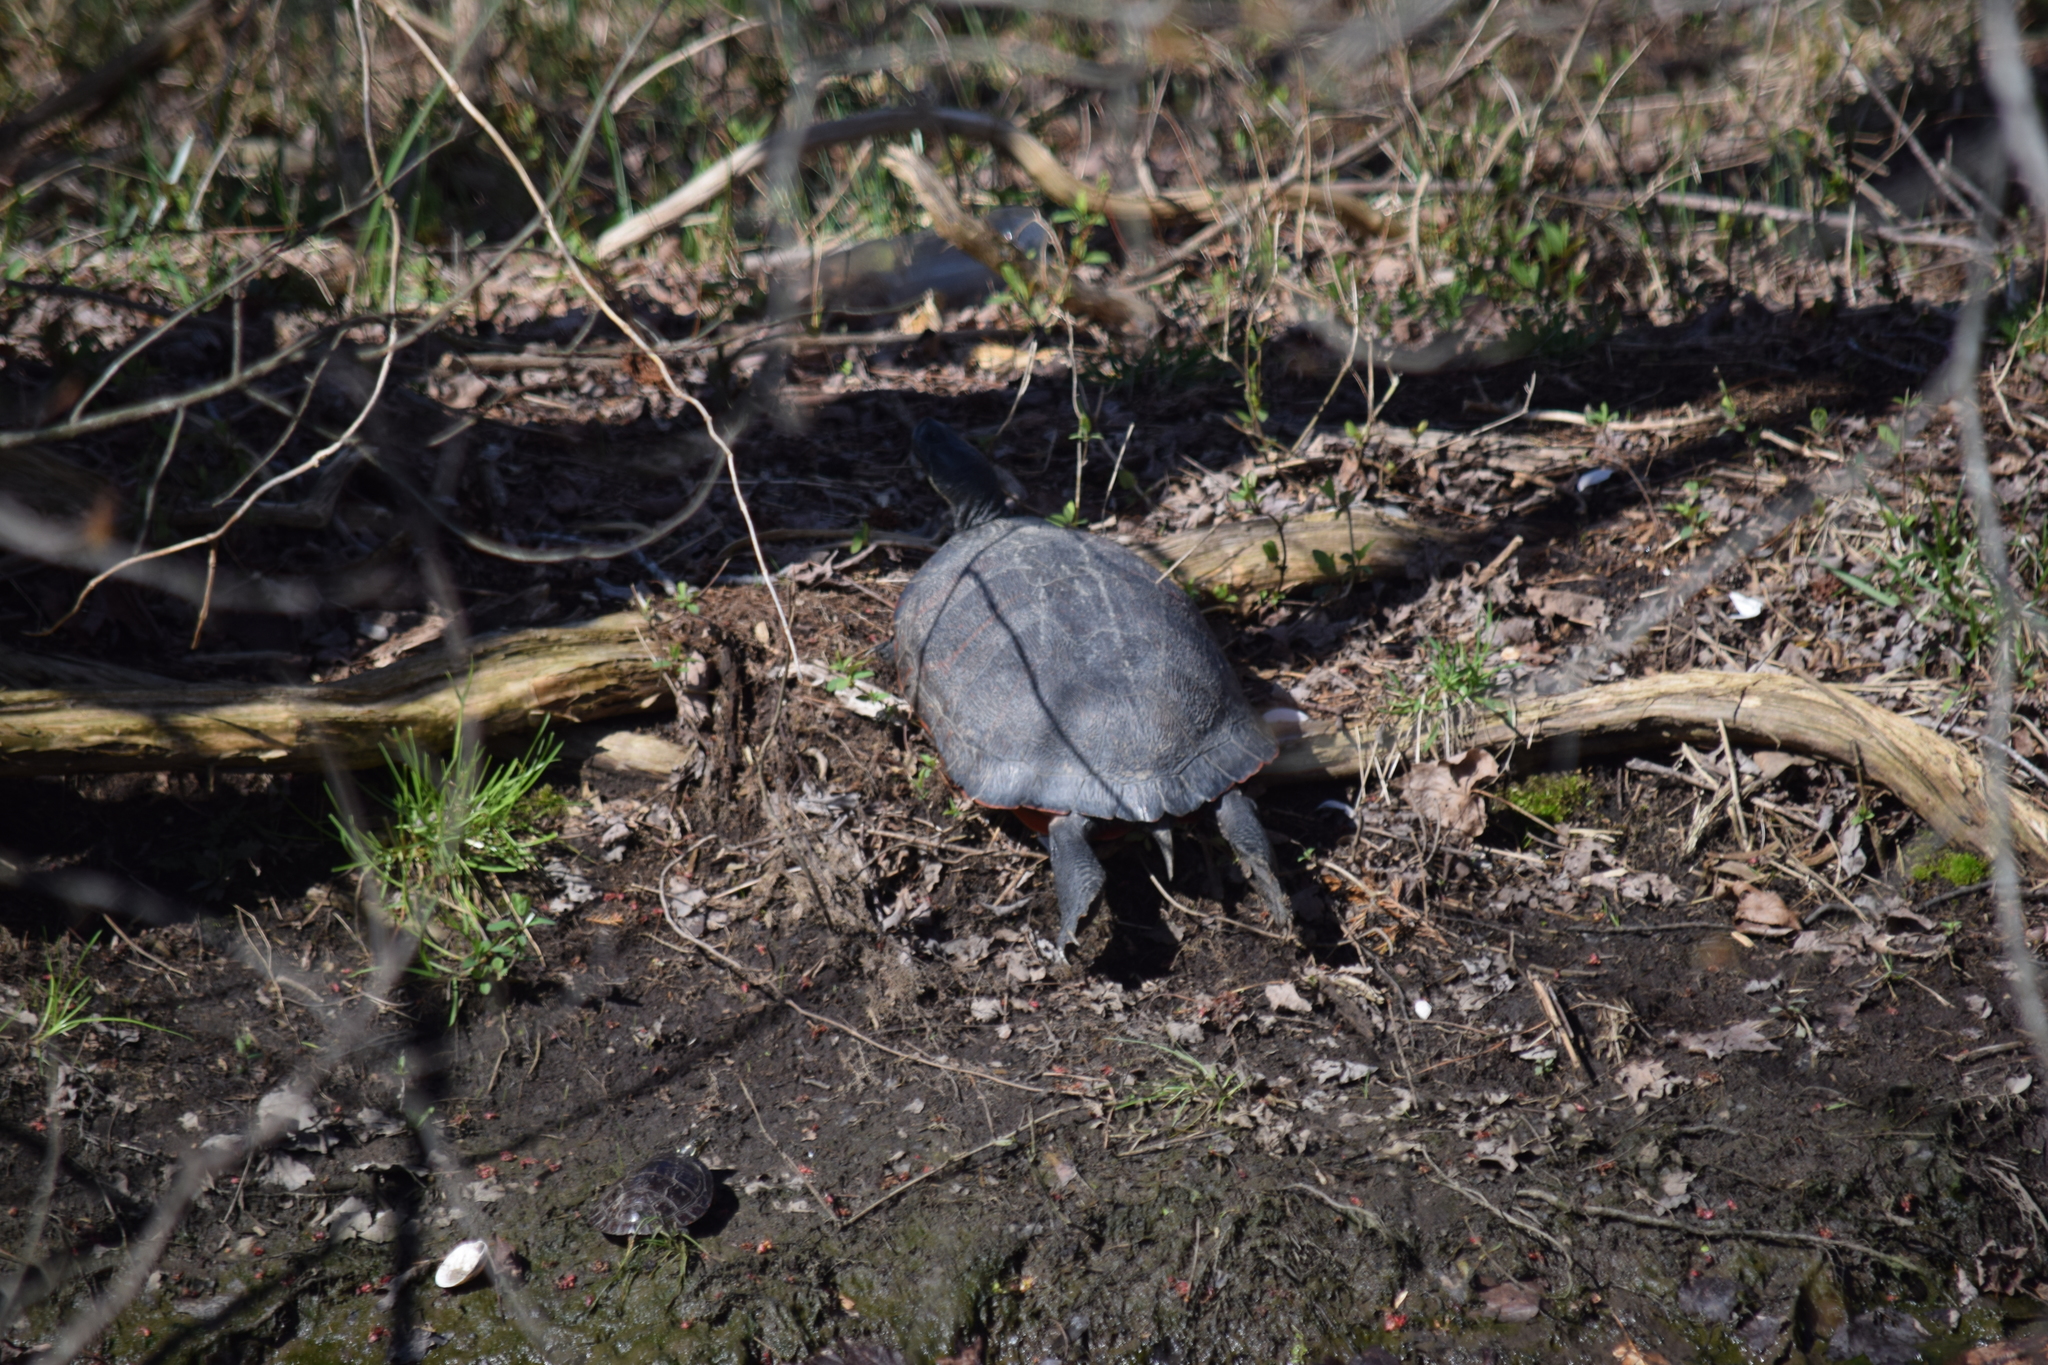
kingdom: Animalia
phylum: Chordata
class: Testudines
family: Emydidae
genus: Chrysemys
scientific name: Chrysemys picta
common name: Painted turtle
